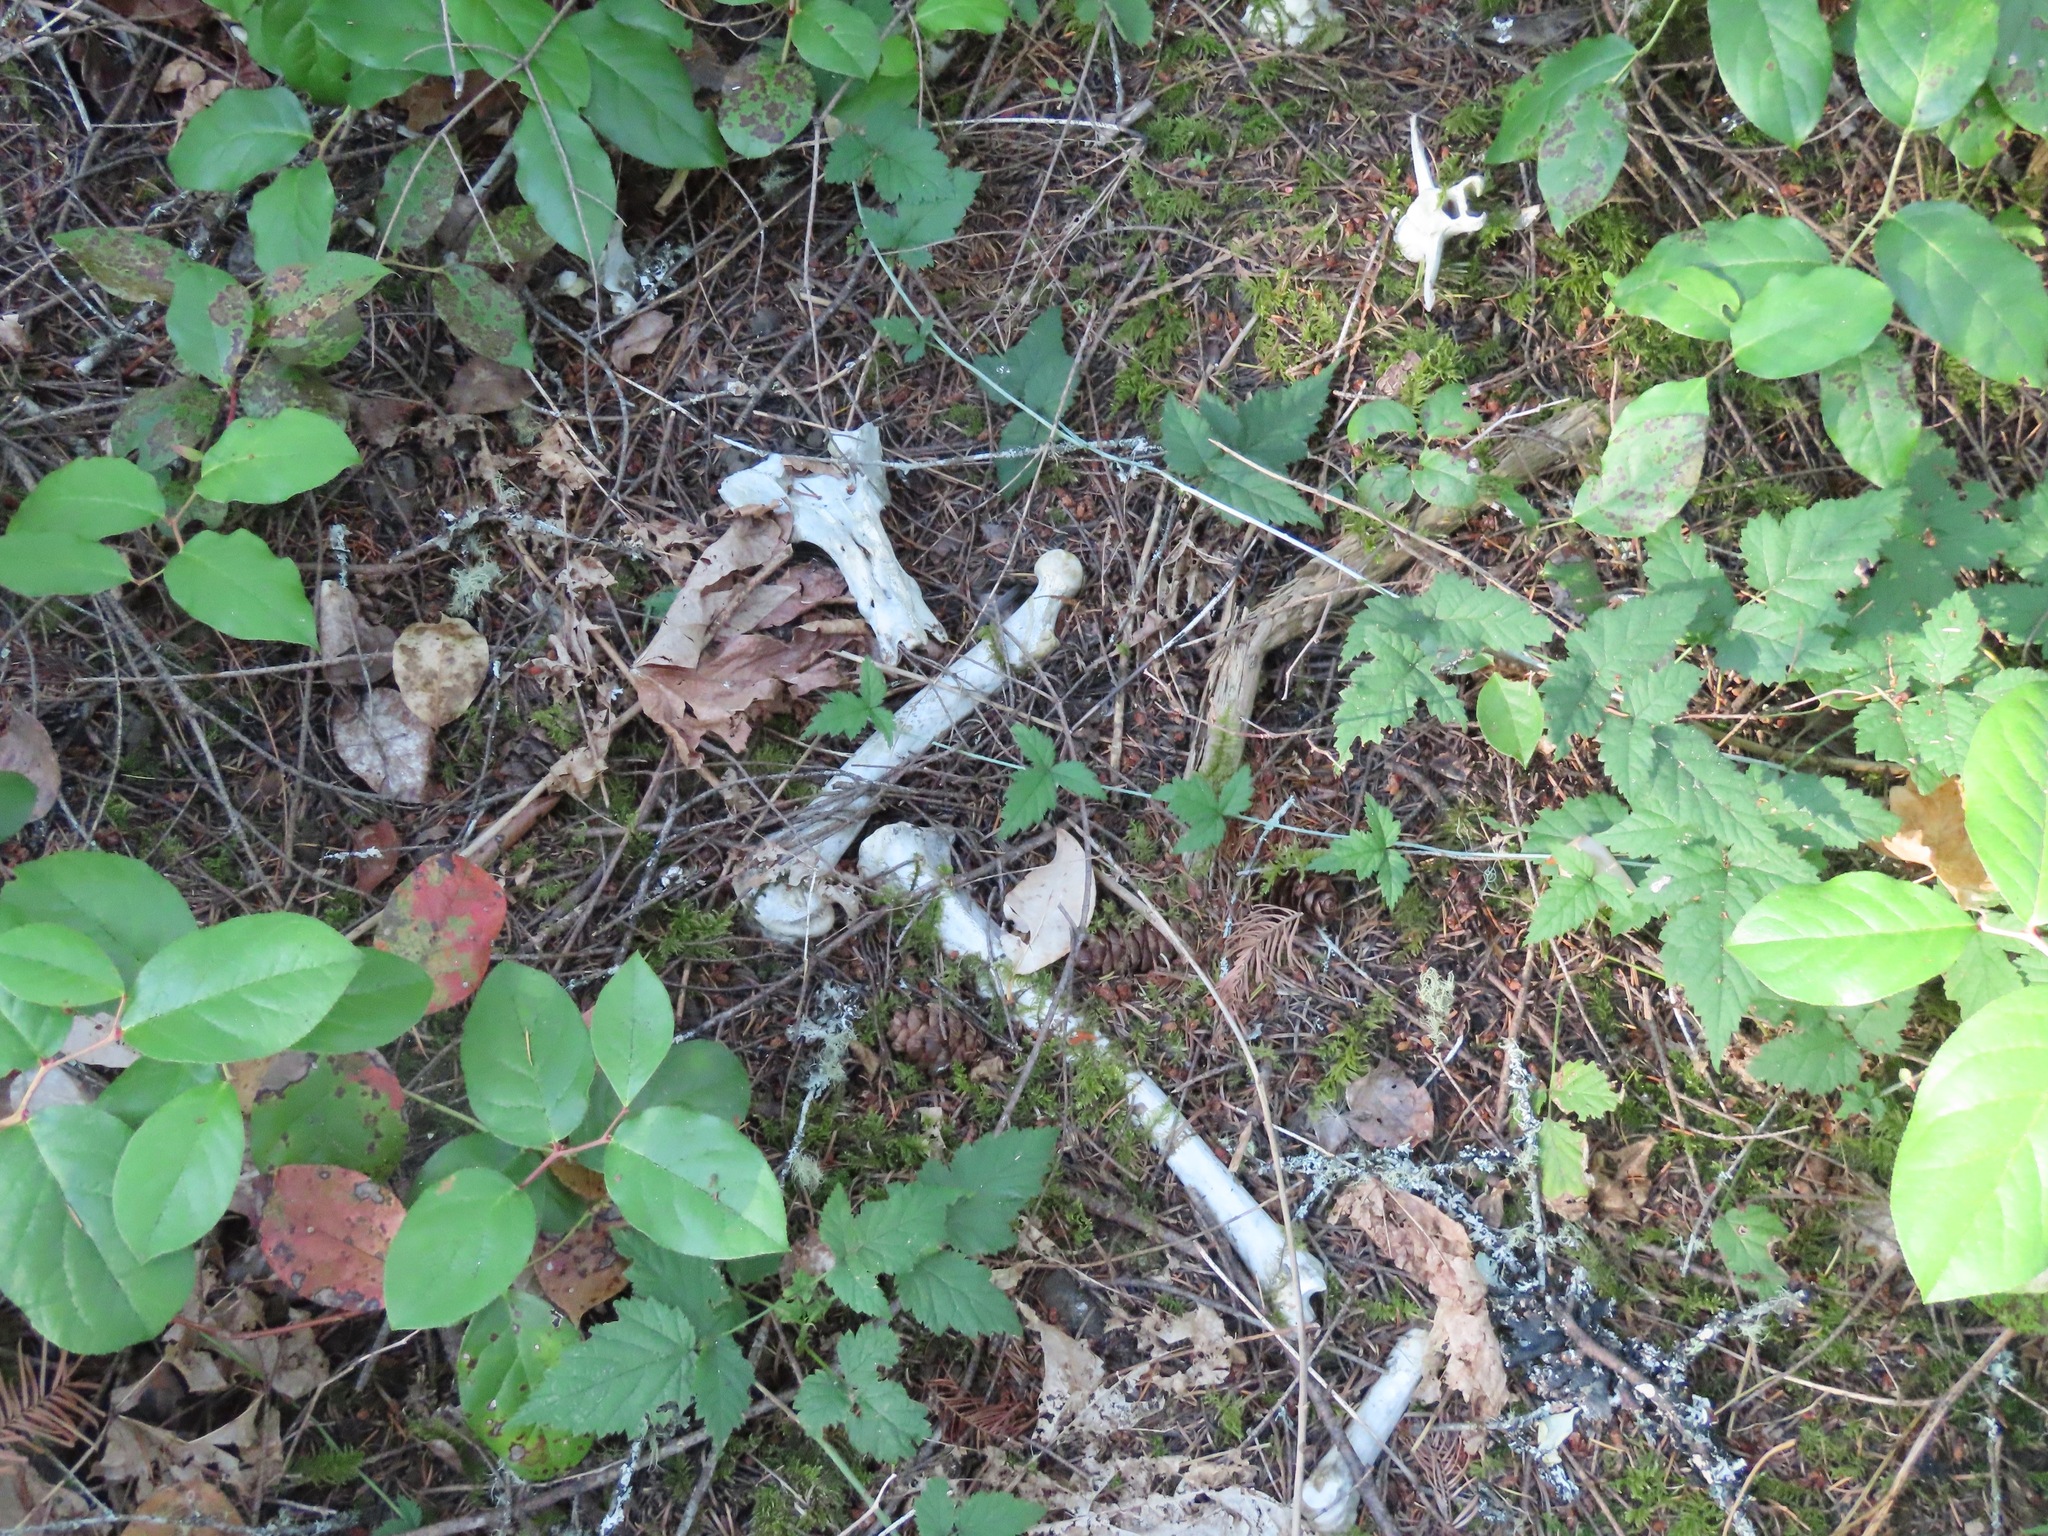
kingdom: Animalia
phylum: Chordata
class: Mammalia
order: Artiodactyla
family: Cervidae
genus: Odocoileus
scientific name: Odocoileus hemionus
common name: Mule deer
